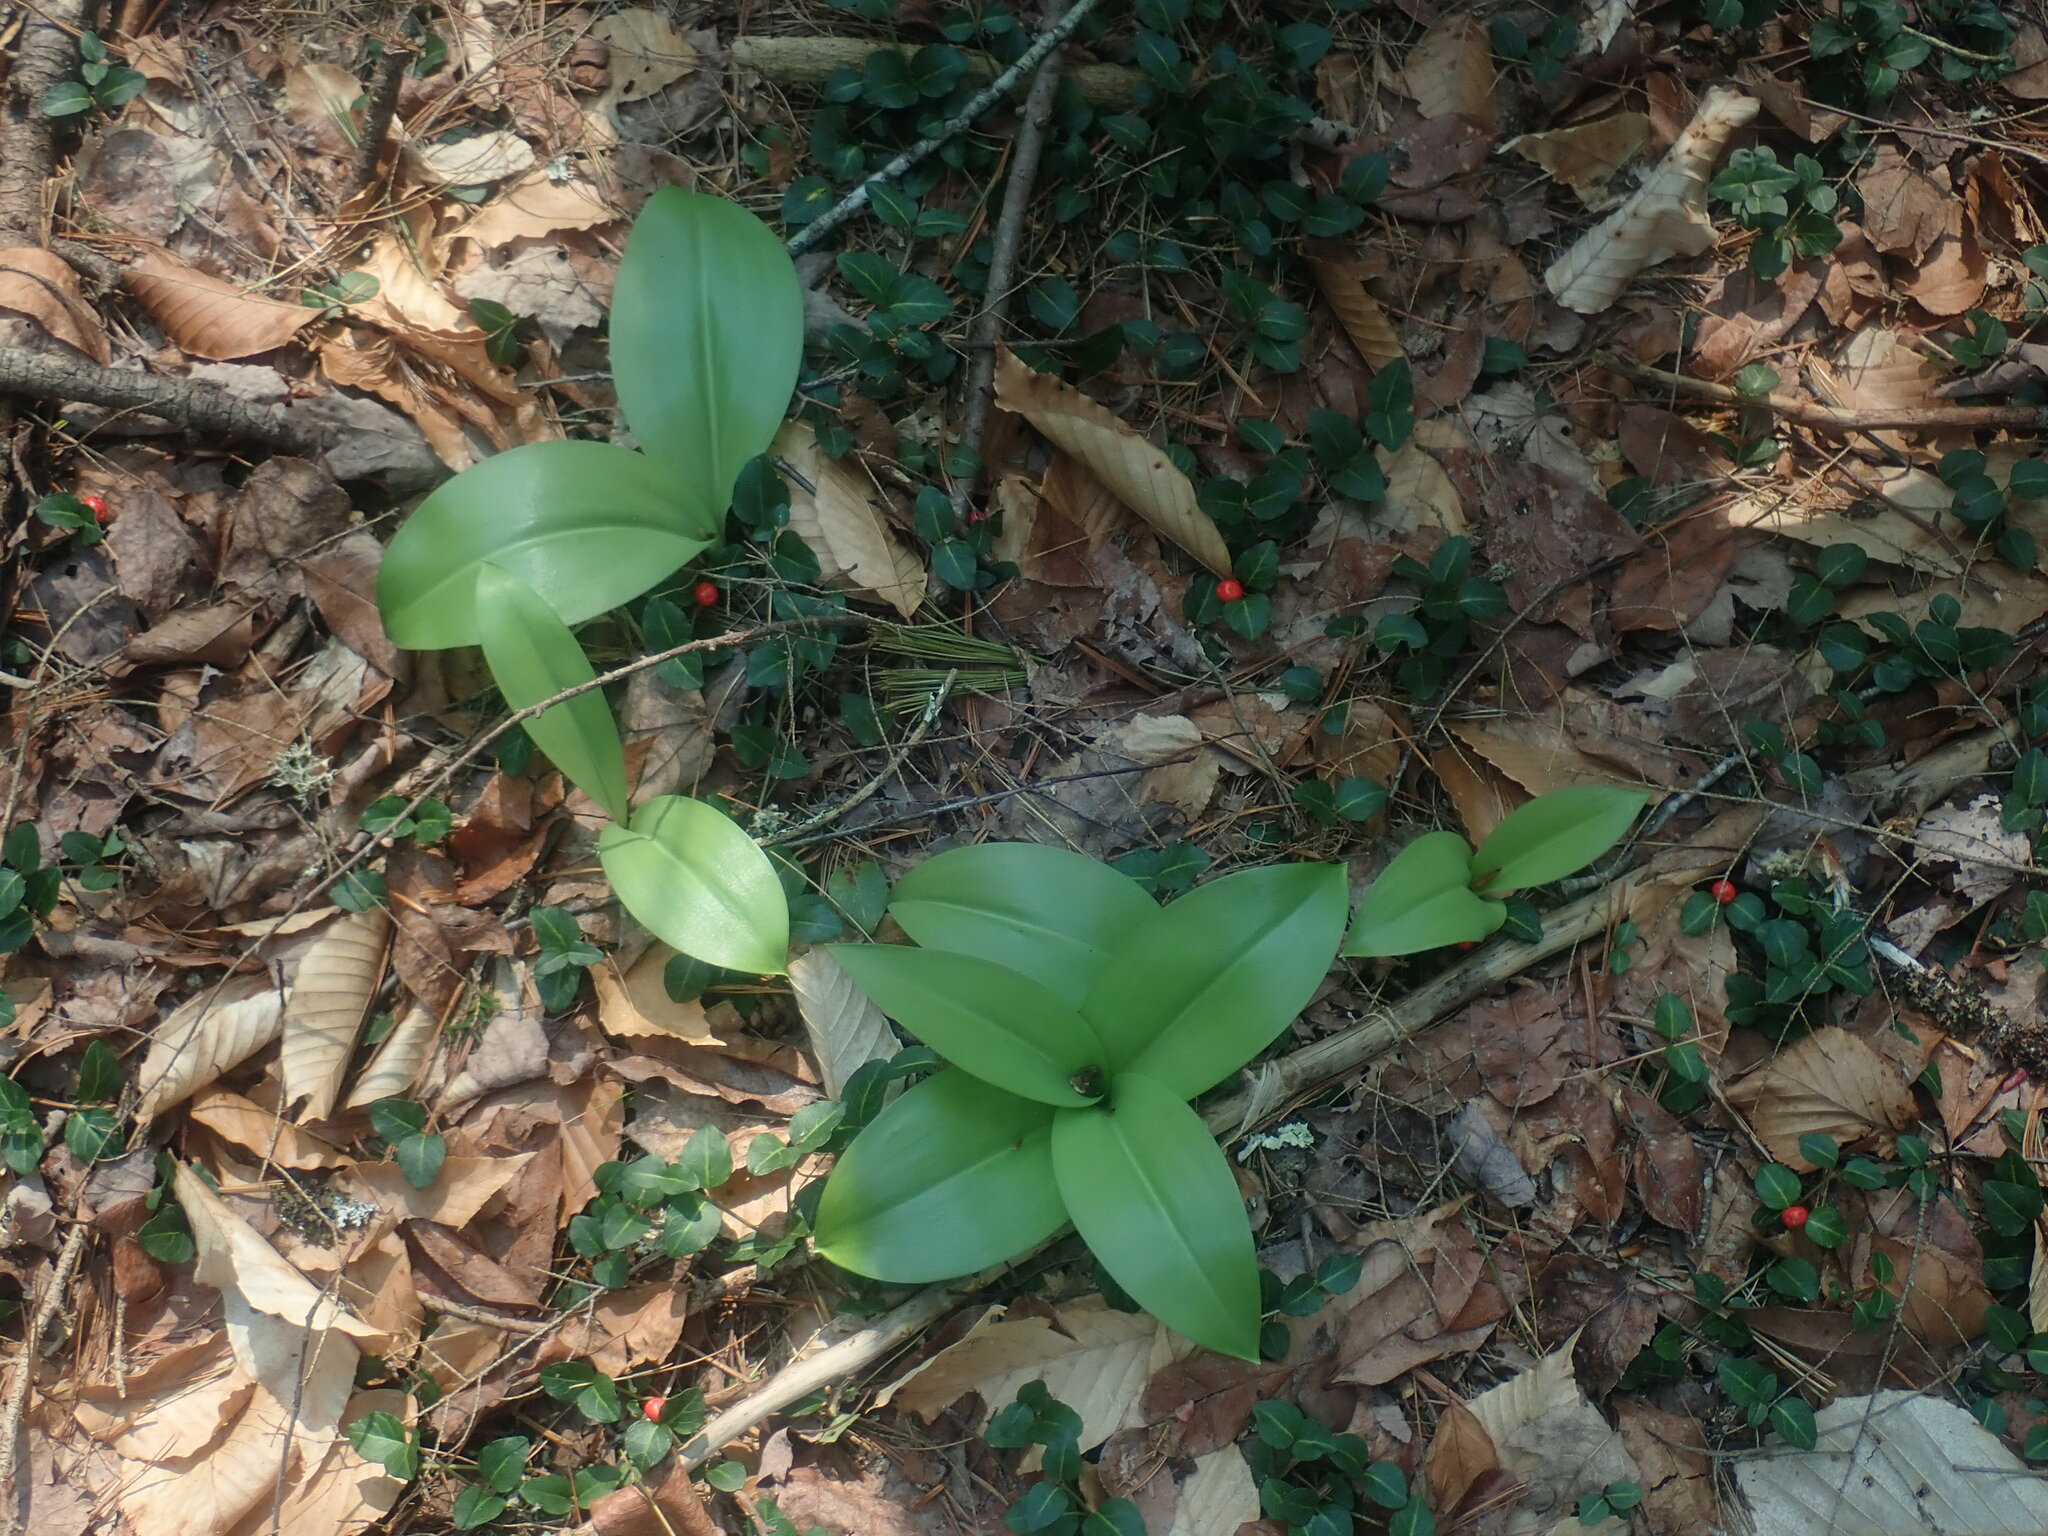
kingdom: Plantae
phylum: Tracheophyta
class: Liliopsida
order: Liliales
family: Liliaceae
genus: Clintonia
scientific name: Clintonia borealis
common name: Yellow clintonia
